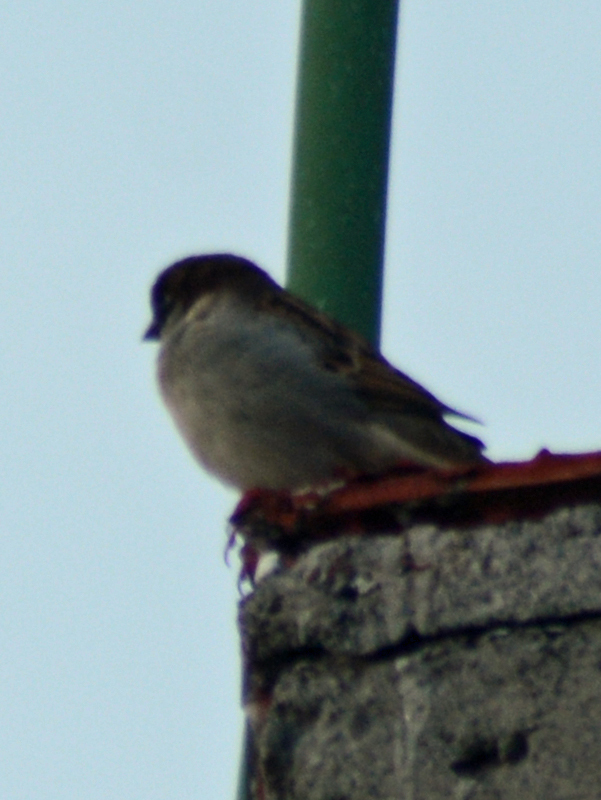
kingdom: Animalia
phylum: Chordata
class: Aves
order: Passeriformes
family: Passeridae
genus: Passer
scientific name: Passer domesticus
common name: House sparrow
